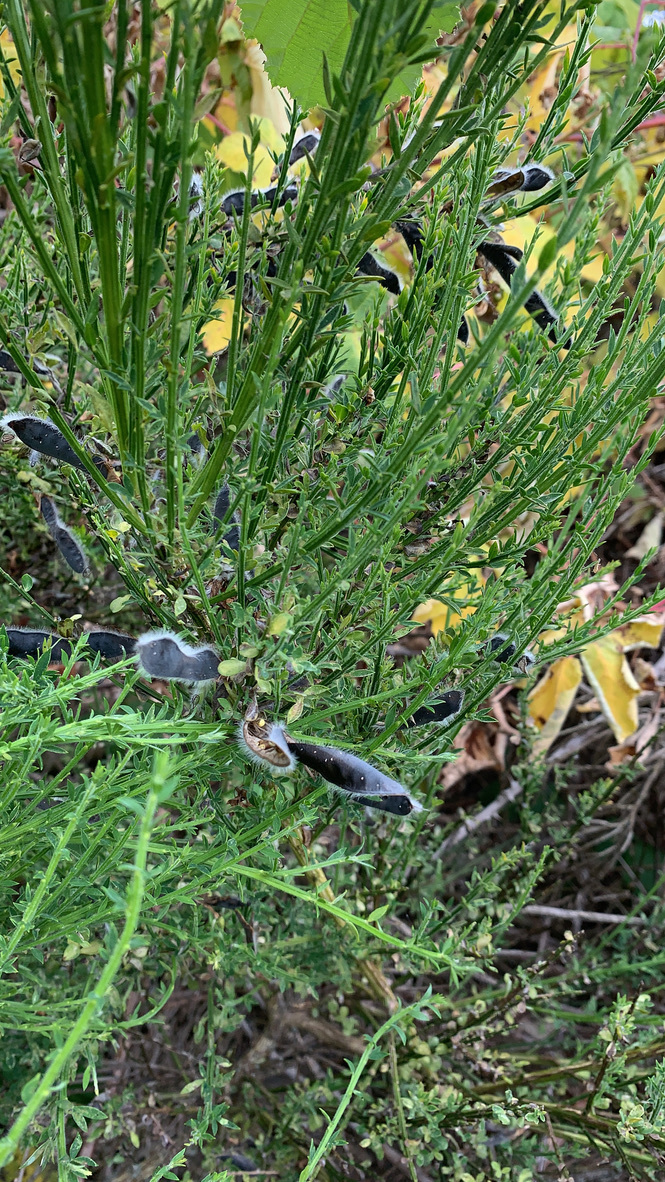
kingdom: Plantae
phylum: Tracheophyta
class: Magnoliopsida
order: Fabales
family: Fabaceae
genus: Cytisus
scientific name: Cytisus scoparius
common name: Scotch broom
